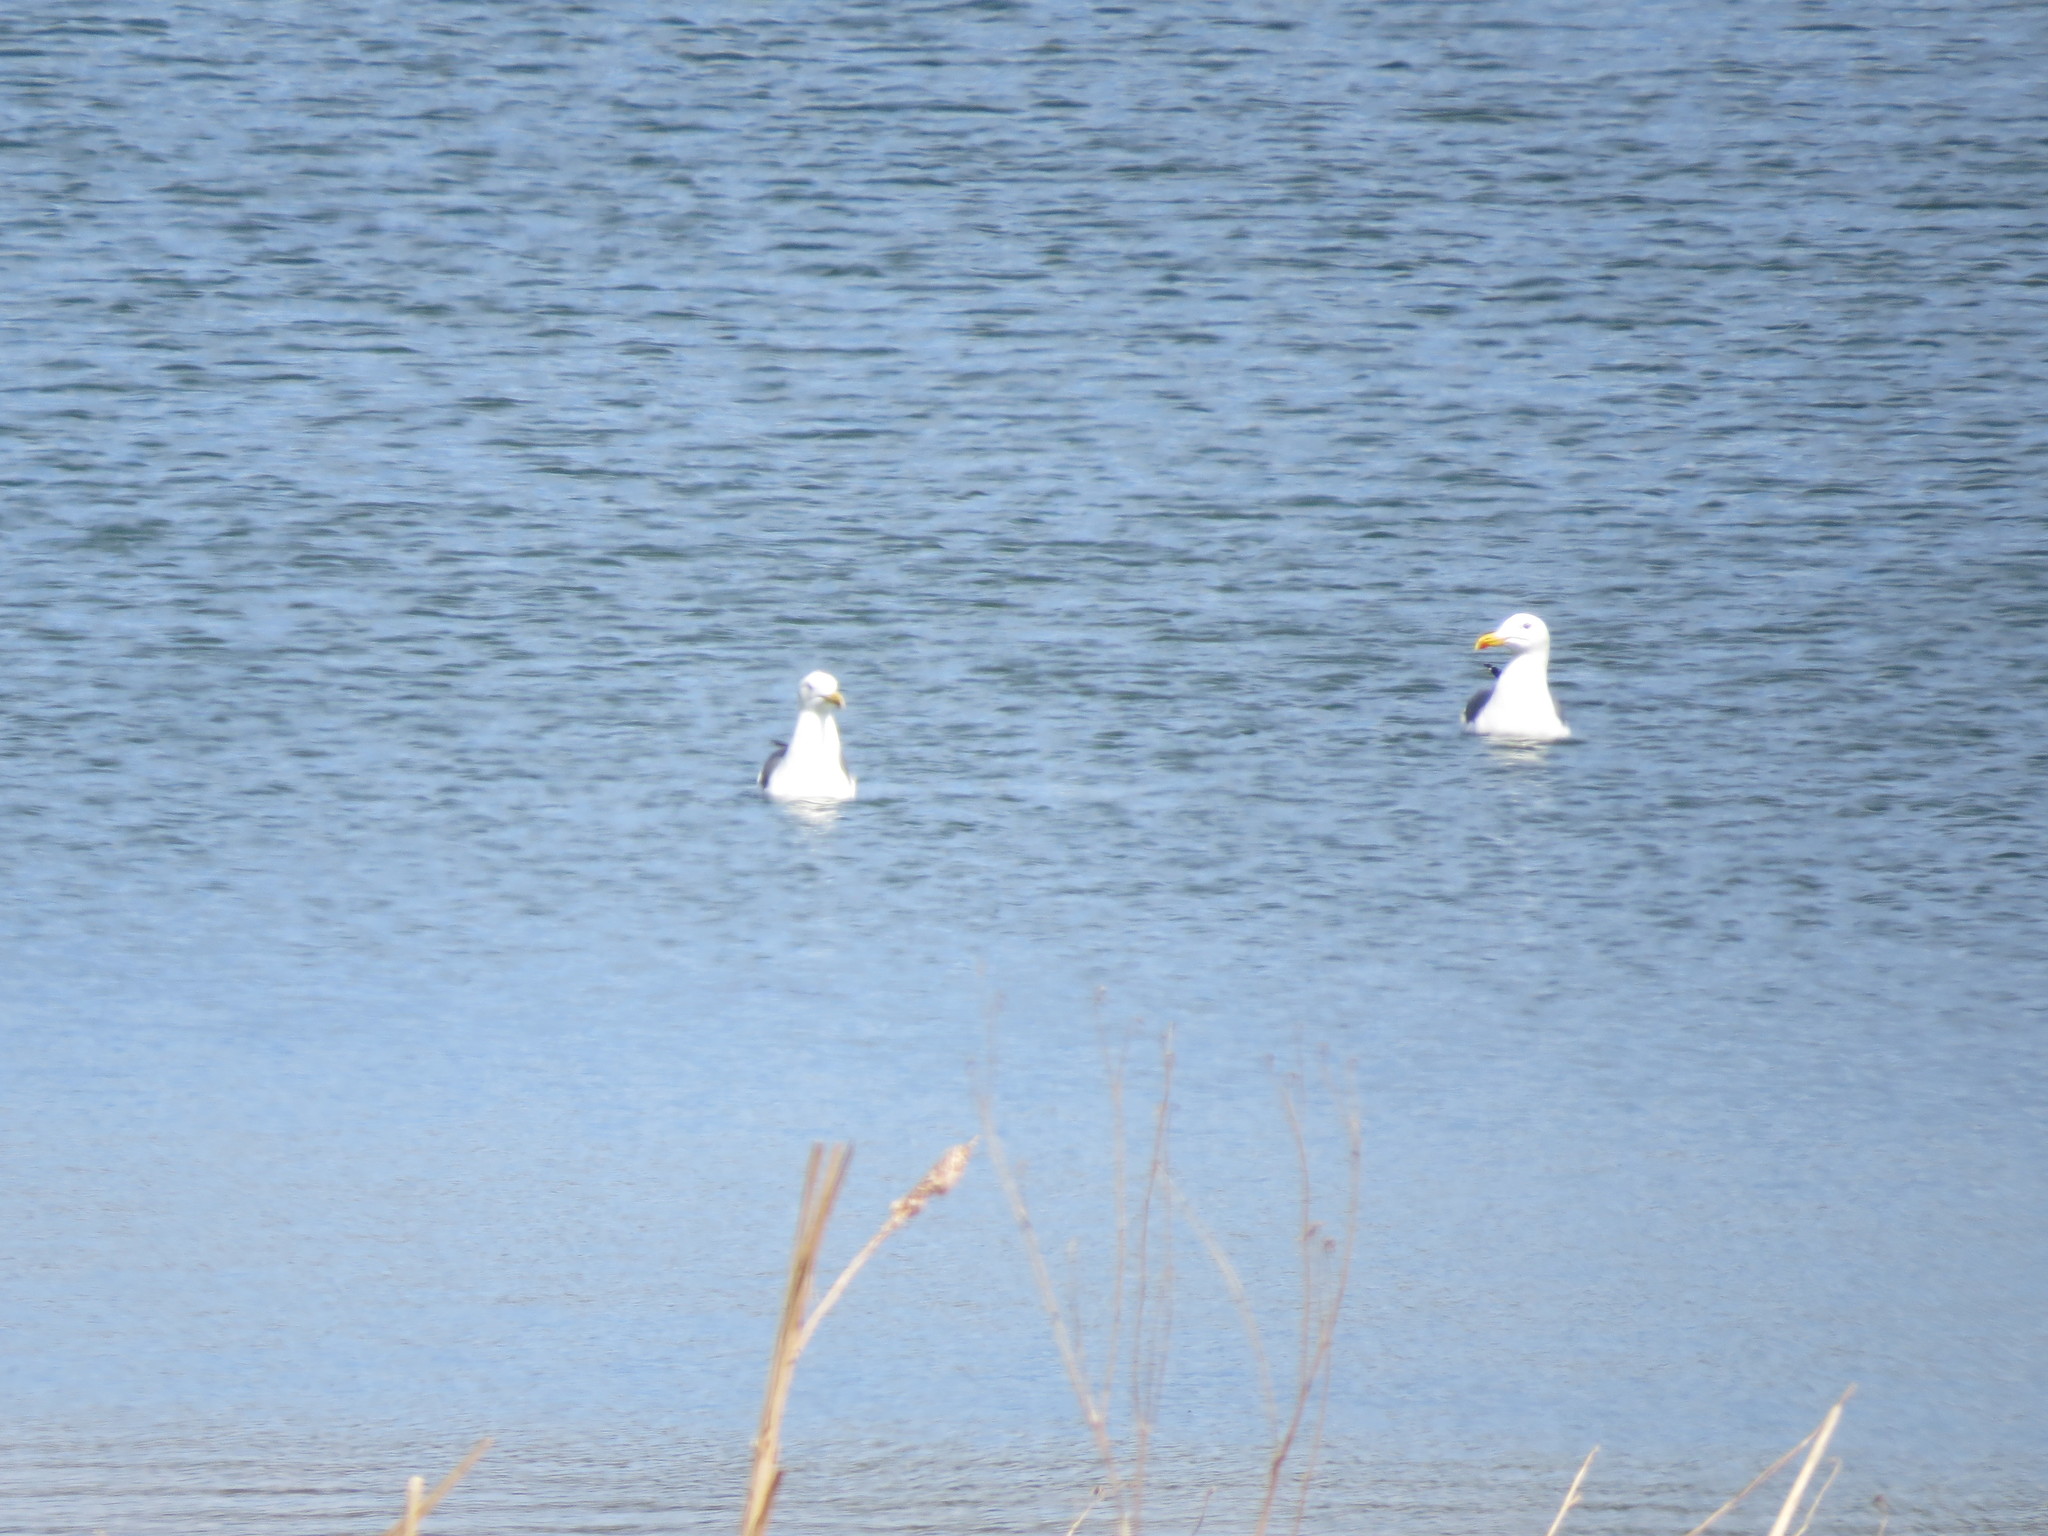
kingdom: Animalia
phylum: Chordata
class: Aves
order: Charadriiformes
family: Laridae
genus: Larus
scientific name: Larus fuscus
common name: Lesser black-backed gull
